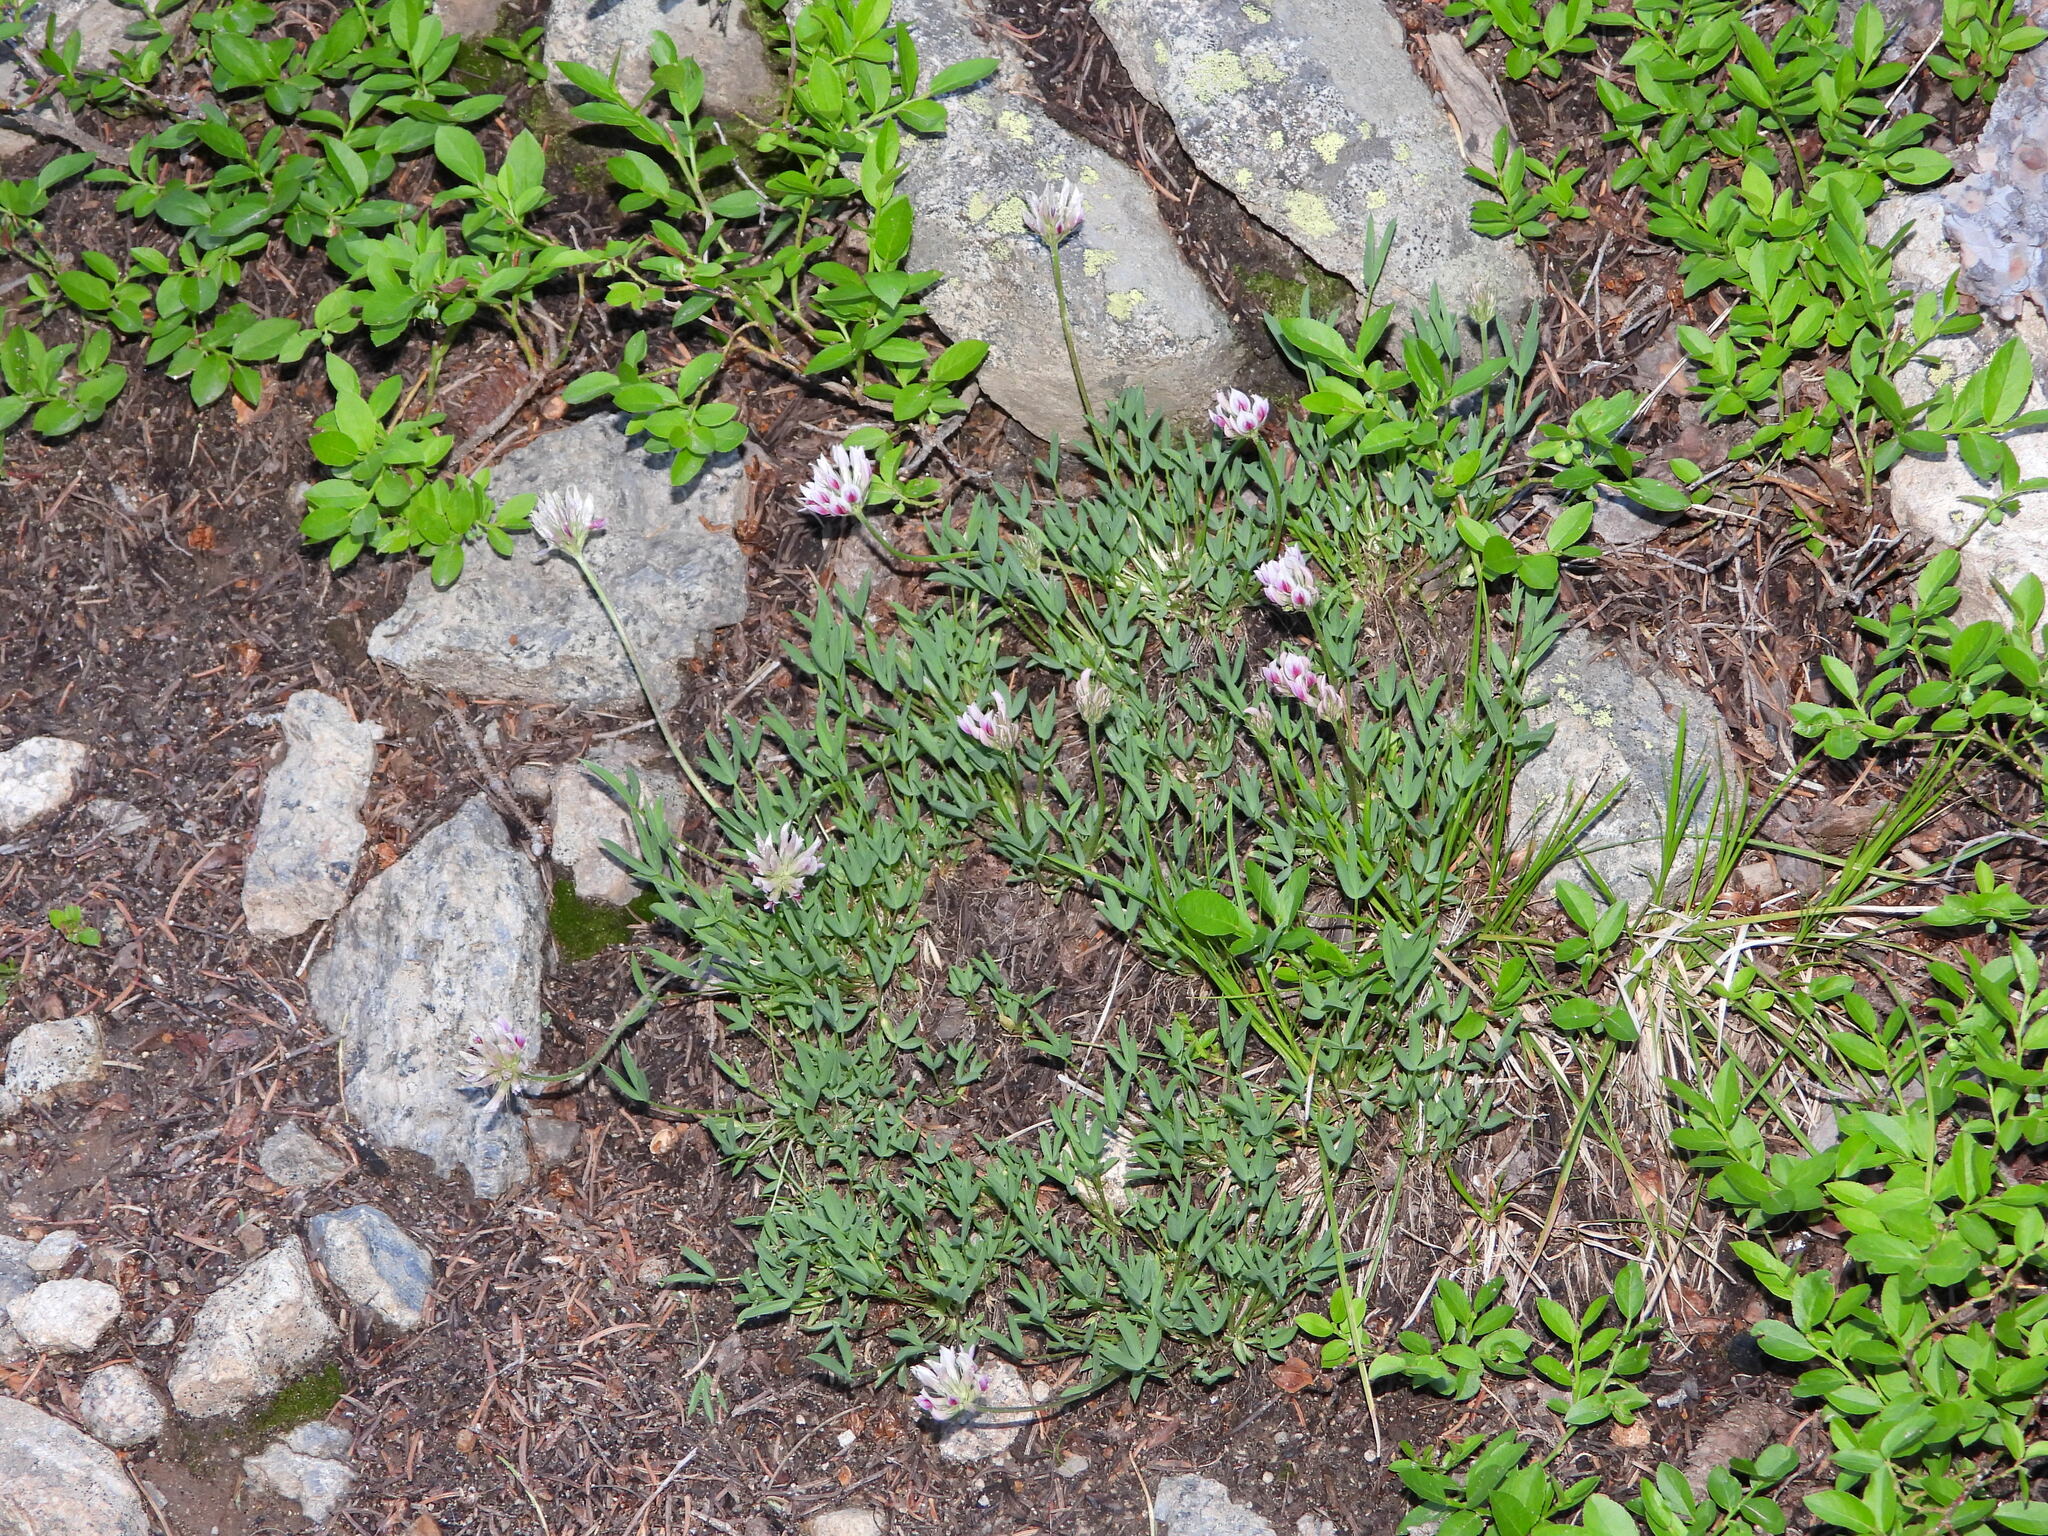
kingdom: Plantae
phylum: Tracheophyta
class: Magnoliopsida
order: Fabales
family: Fabaceae
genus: Trifolium
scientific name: Trifolium dasyphyllum
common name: Whip-root clover
